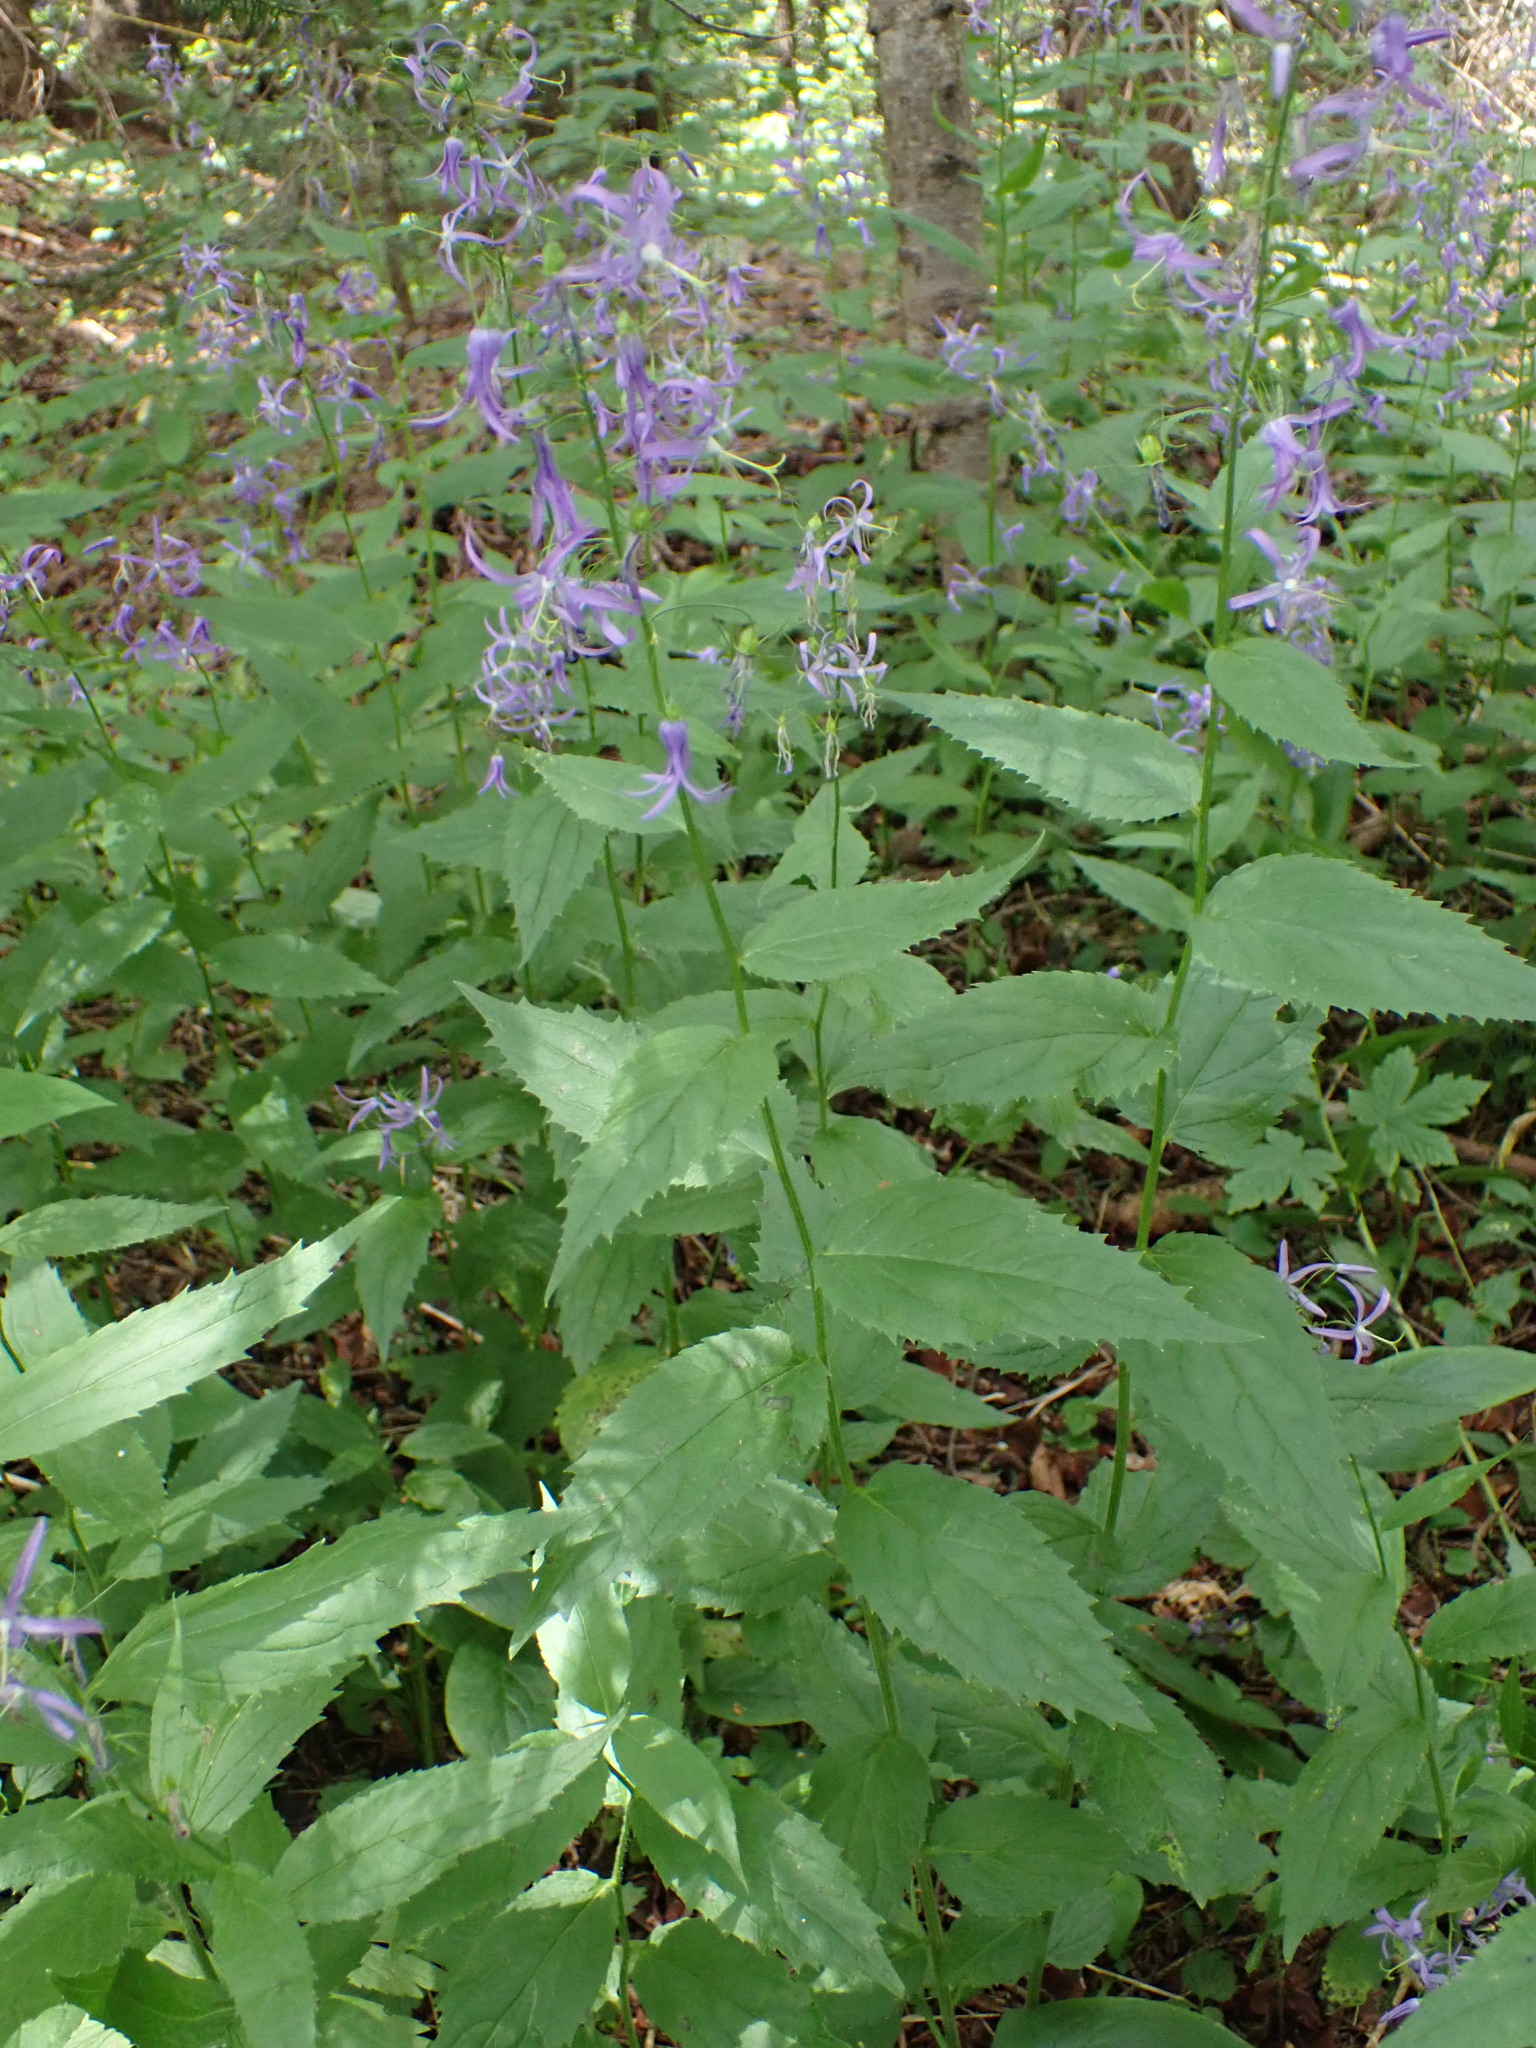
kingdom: Plantae
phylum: Tracheophyta
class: Magnoliopsida
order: Asterales
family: Campanulaceae
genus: Campanula
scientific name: Campanula pichleri
